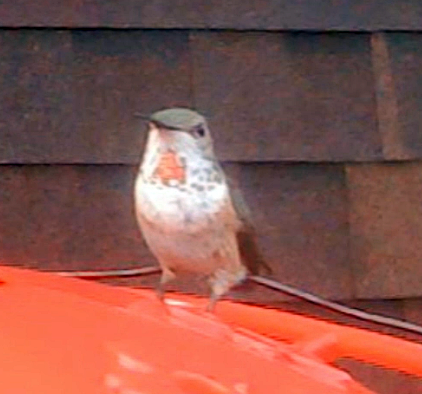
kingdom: Animalia
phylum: Chordata
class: Aves
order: Apodiformes
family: Trochilidae
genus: Selasphorus
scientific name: Selasphorus rufus
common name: Rufous hummingbird
